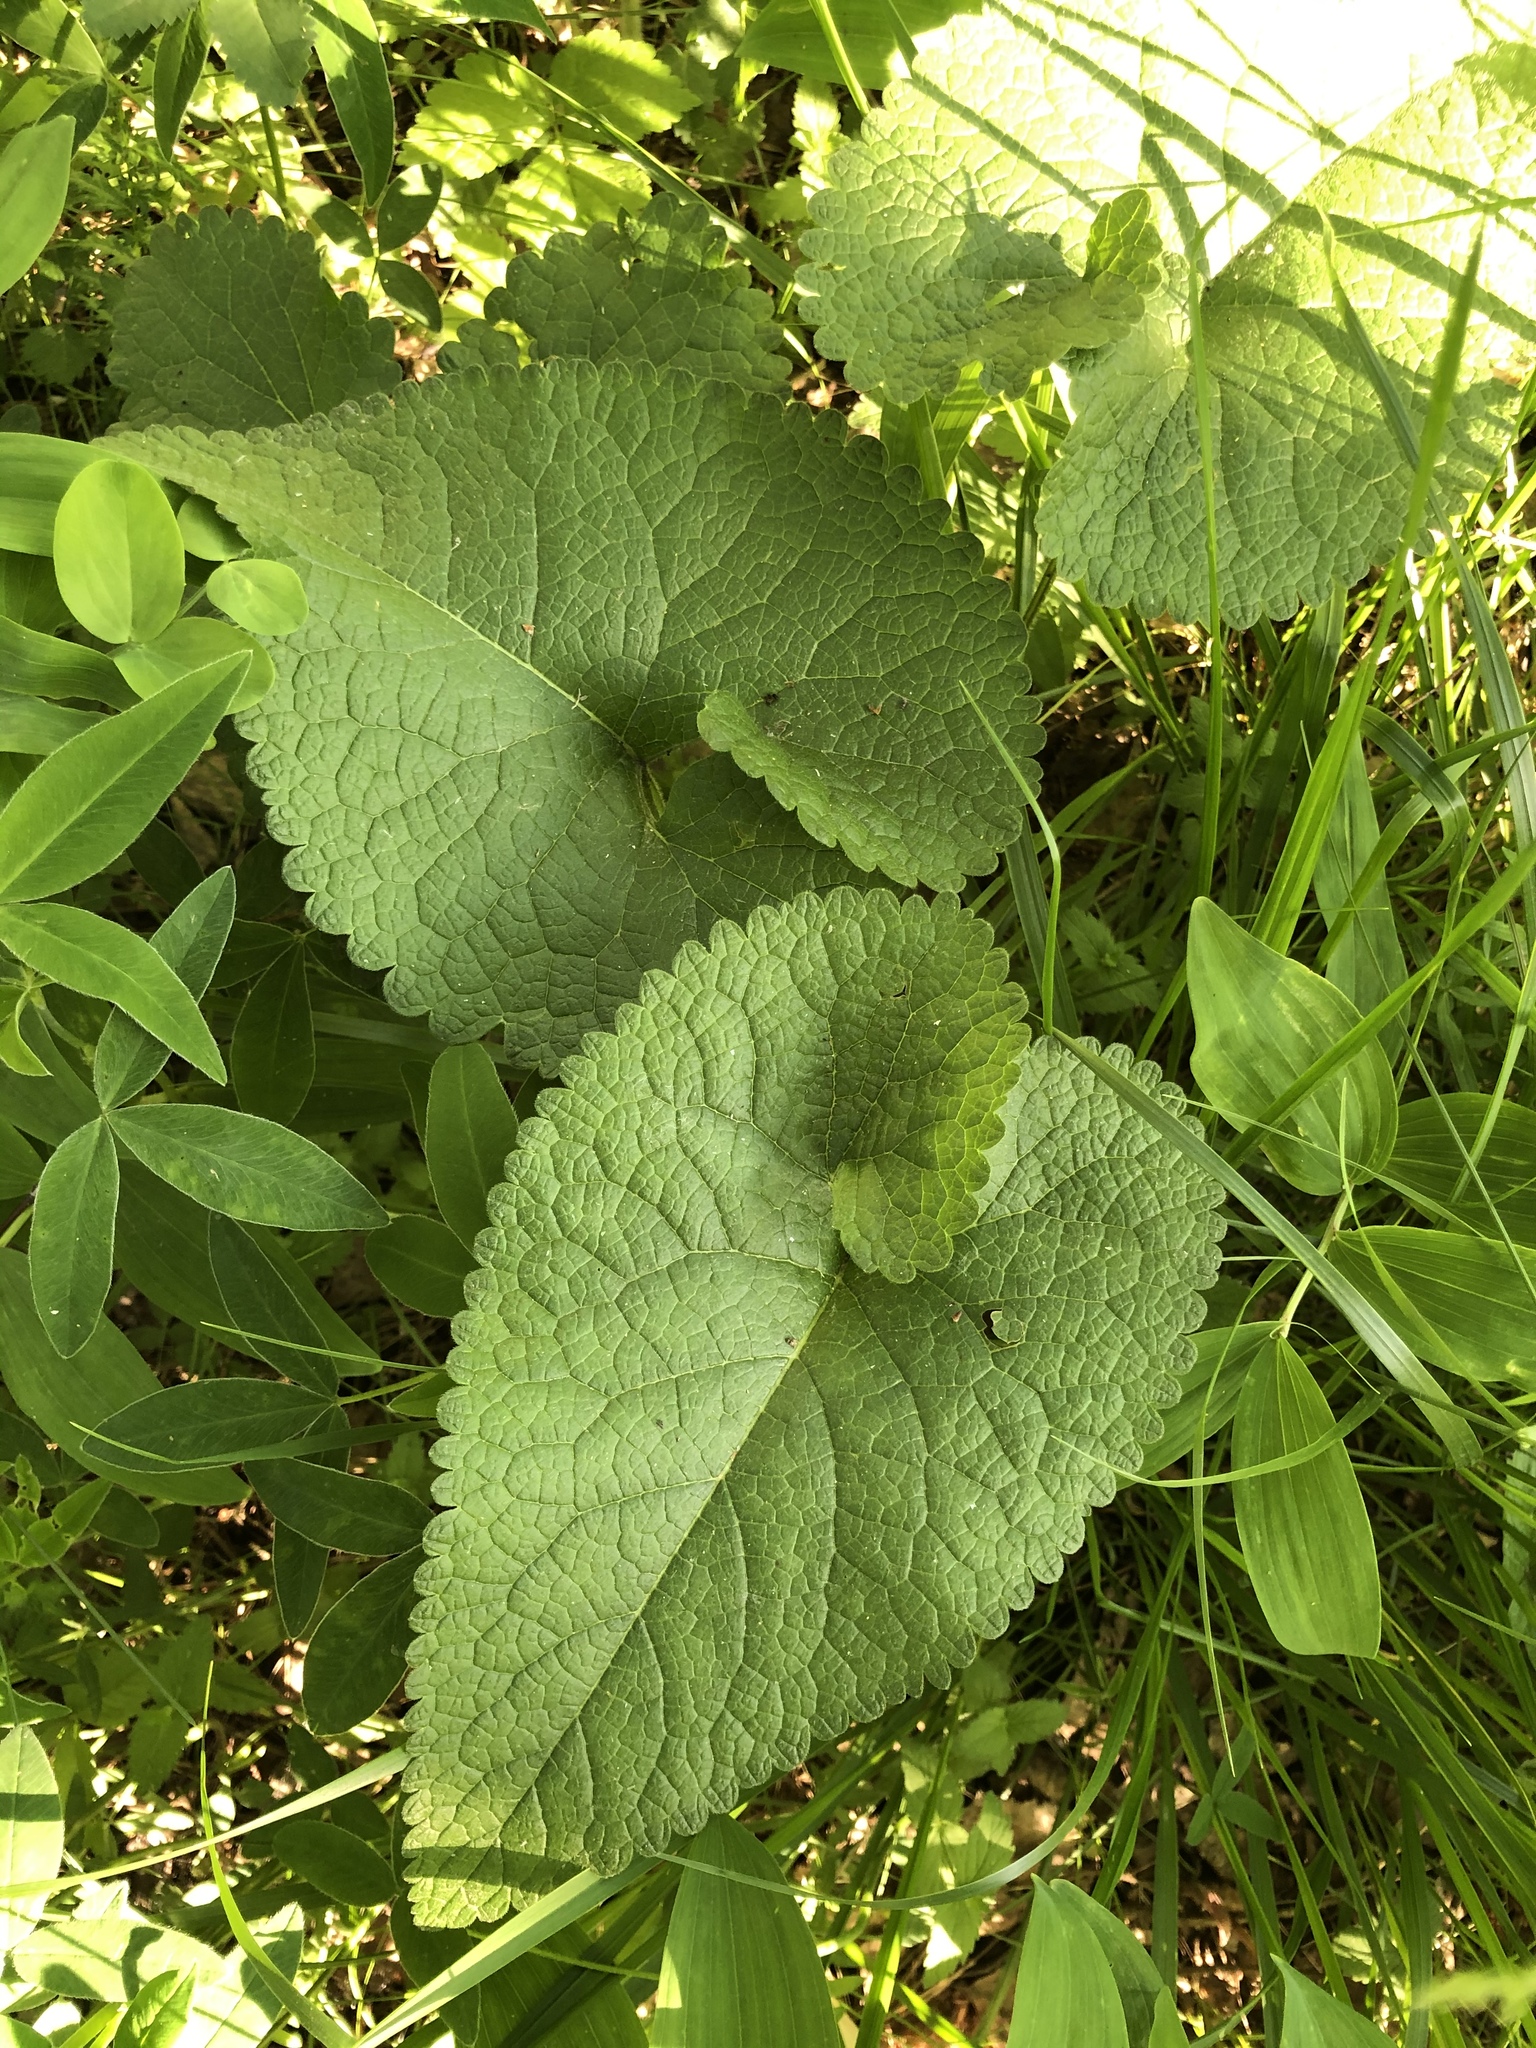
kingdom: Plantae
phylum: Tracheophyta
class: Magnoliopsida
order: Lamiales
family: Lamiaceae
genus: Phlomoides
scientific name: Phlomoides tuberosa
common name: Tuberous jerusalem sage
